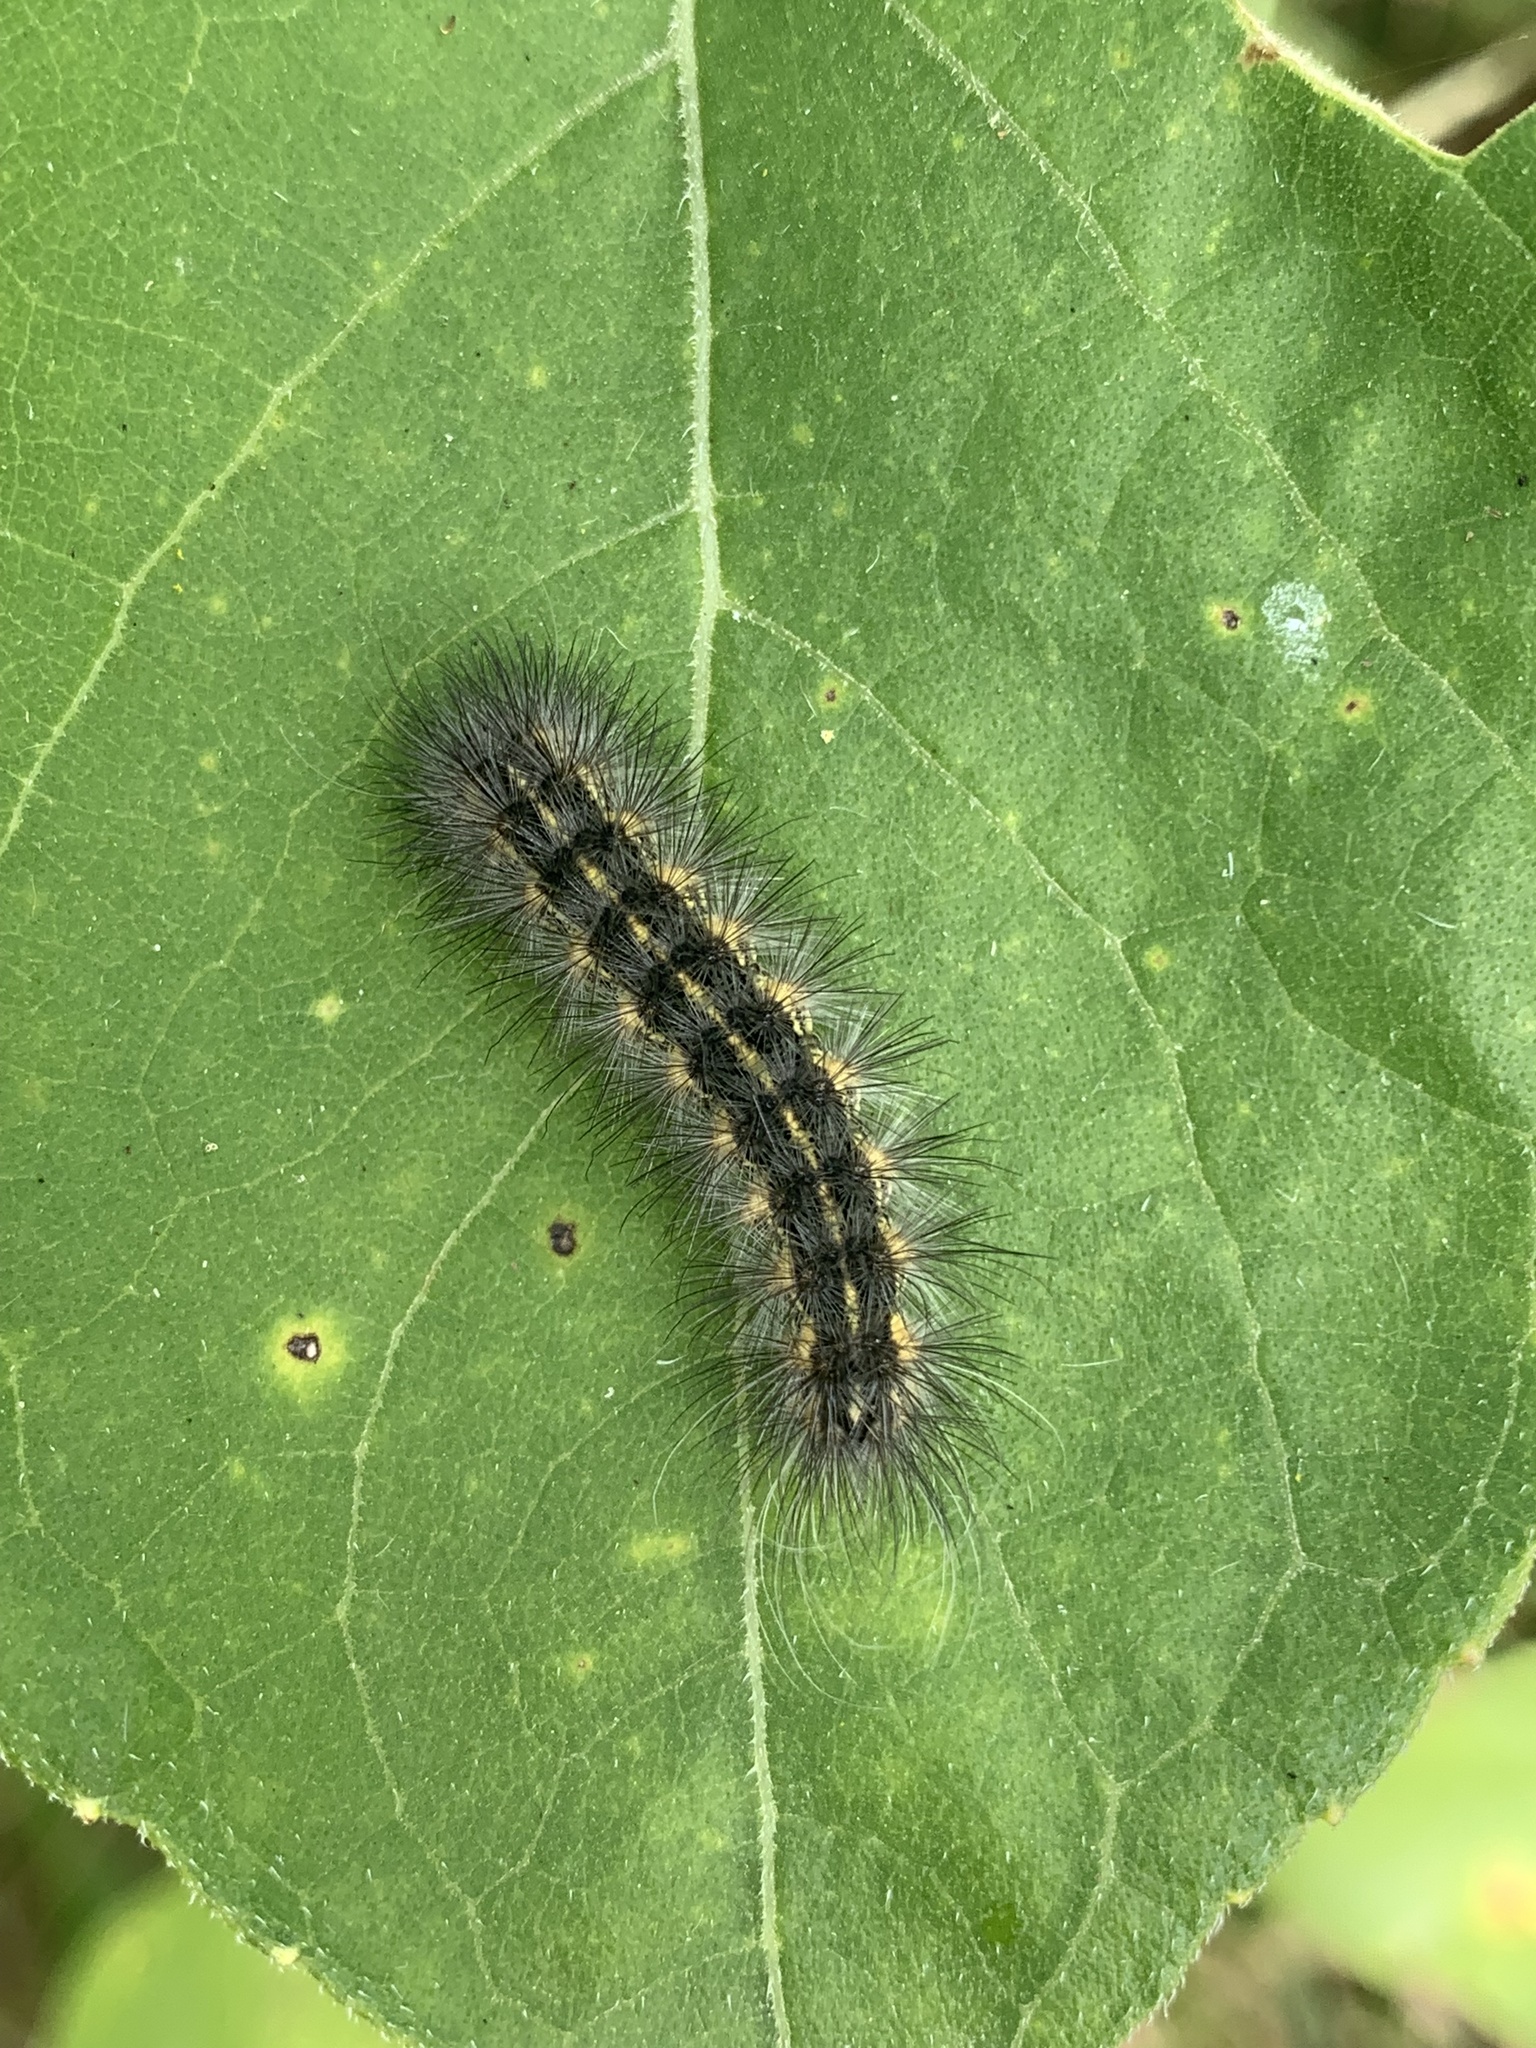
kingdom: Animalia
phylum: Arthropoda
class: Insecta
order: Lepidoptera
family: Erebidae
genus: Estigmene
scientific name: Estigmene acrea
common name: Salt marsh moth
